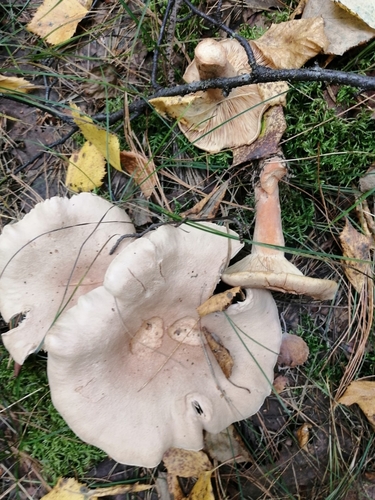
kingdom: Fungi
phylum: Basidiomycota
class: Agaricomycetes
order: Russulales
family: Russulaceae
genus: Lactarius
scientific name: Lactarius helvus
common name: Fenugreek milkcap
